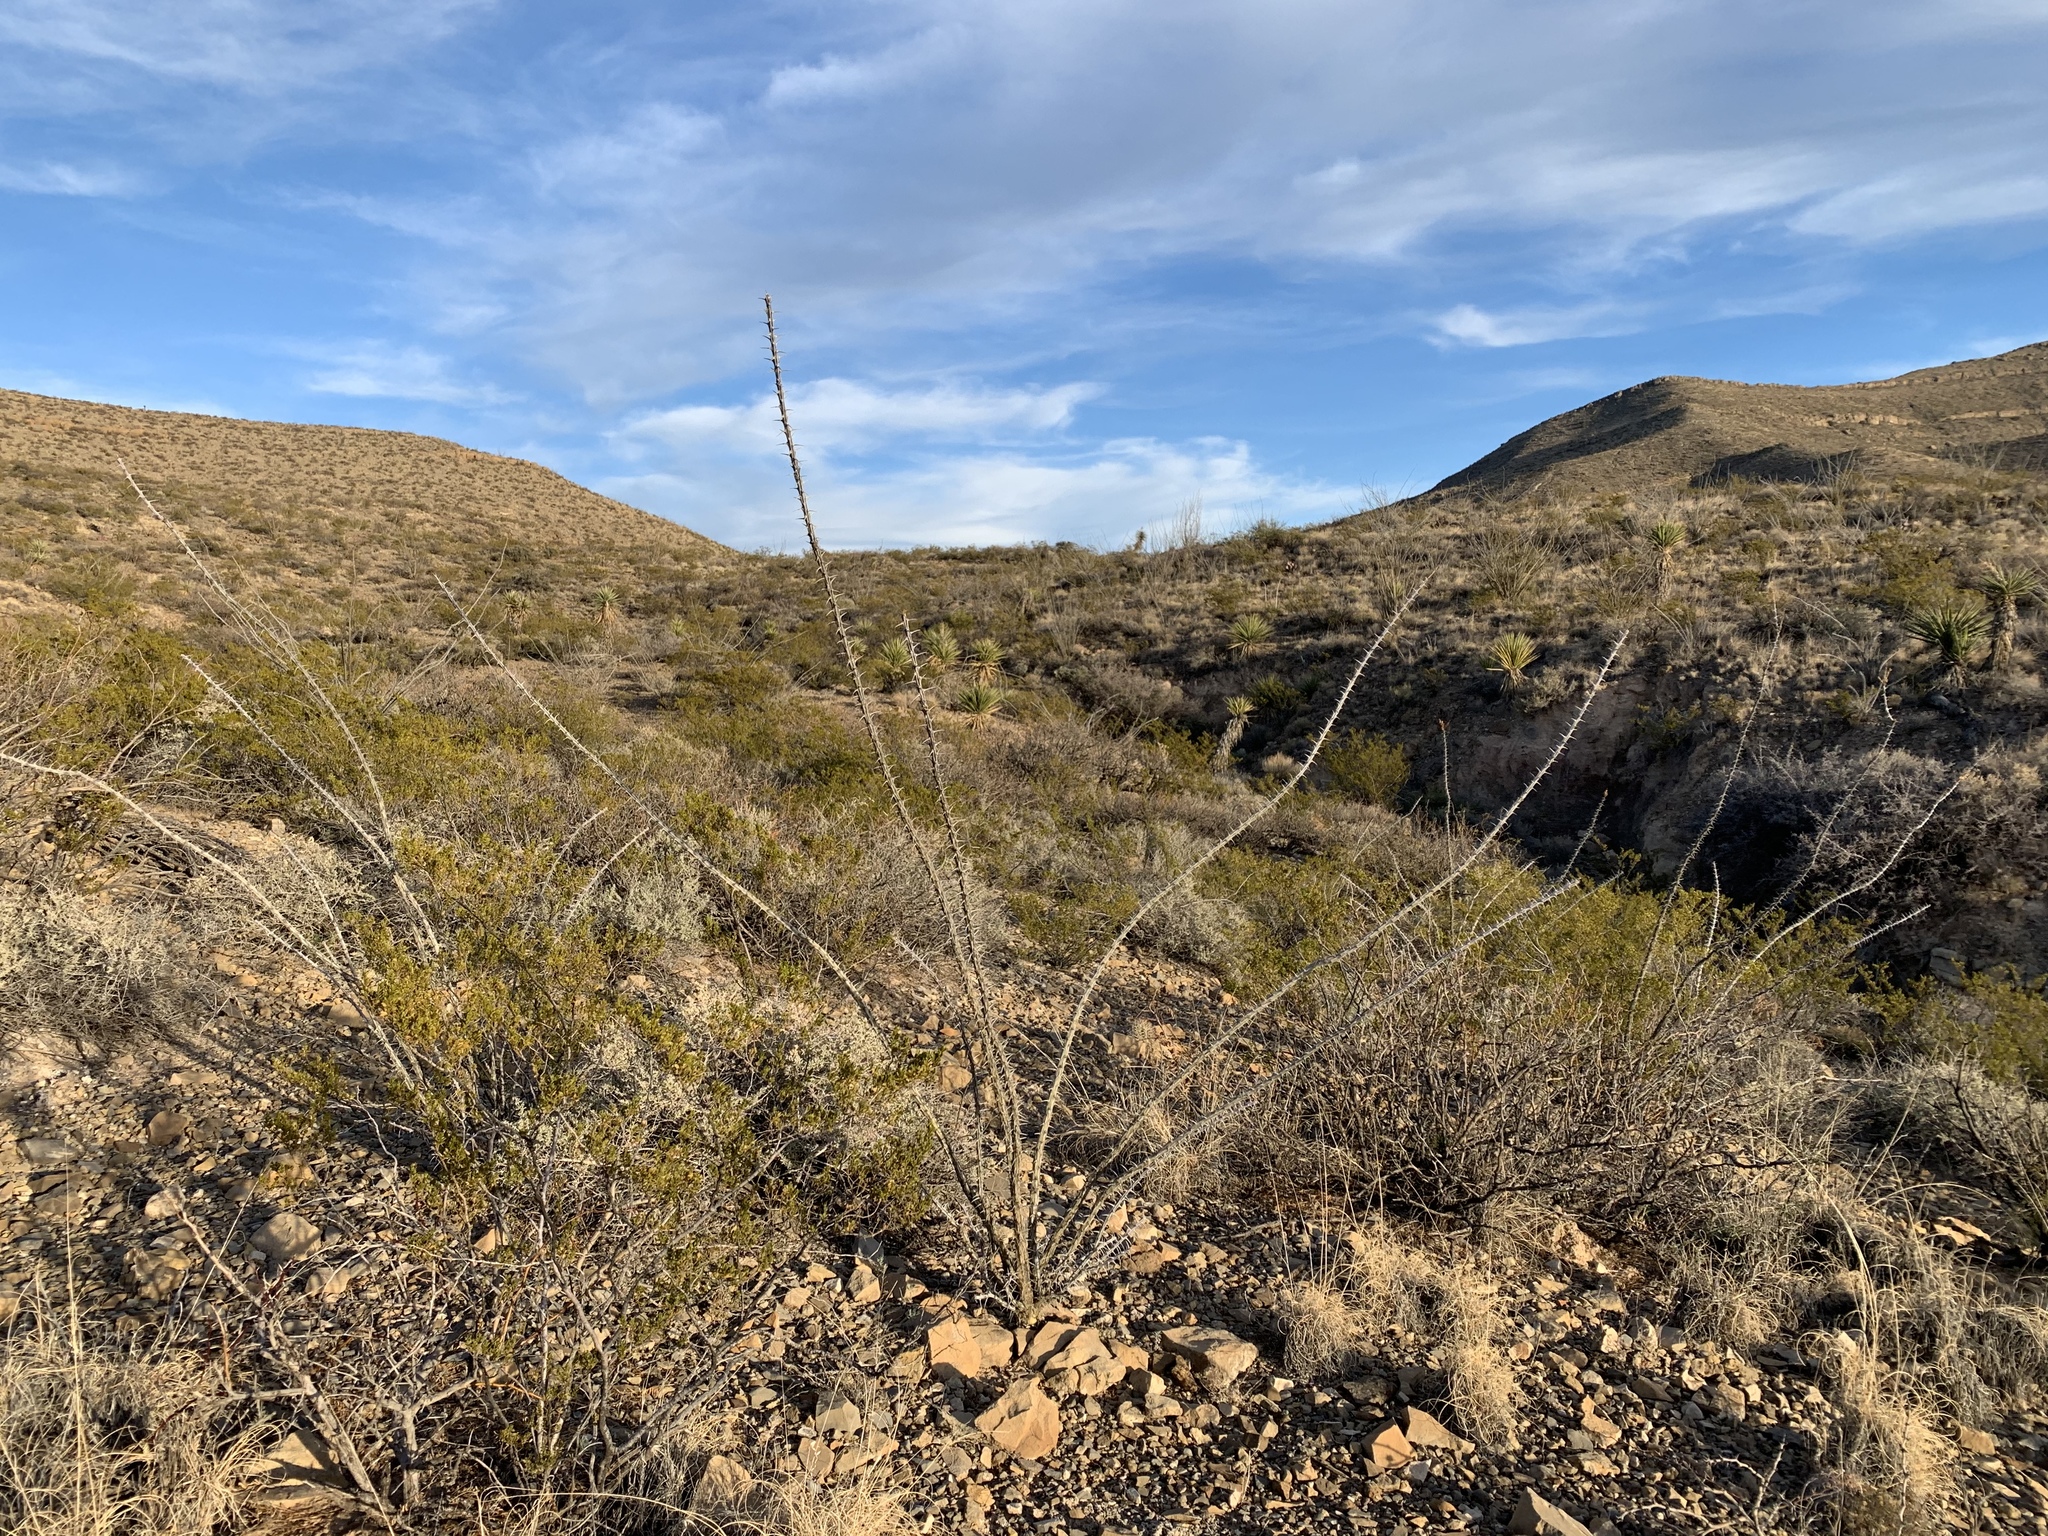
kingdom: Plantae
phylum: Tracheophyta
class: Magnoliopsida
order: Ericales
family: Fouquieriaceae
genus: Fouquieria
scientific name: Fouquieria splendens
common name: Vine-cactus
